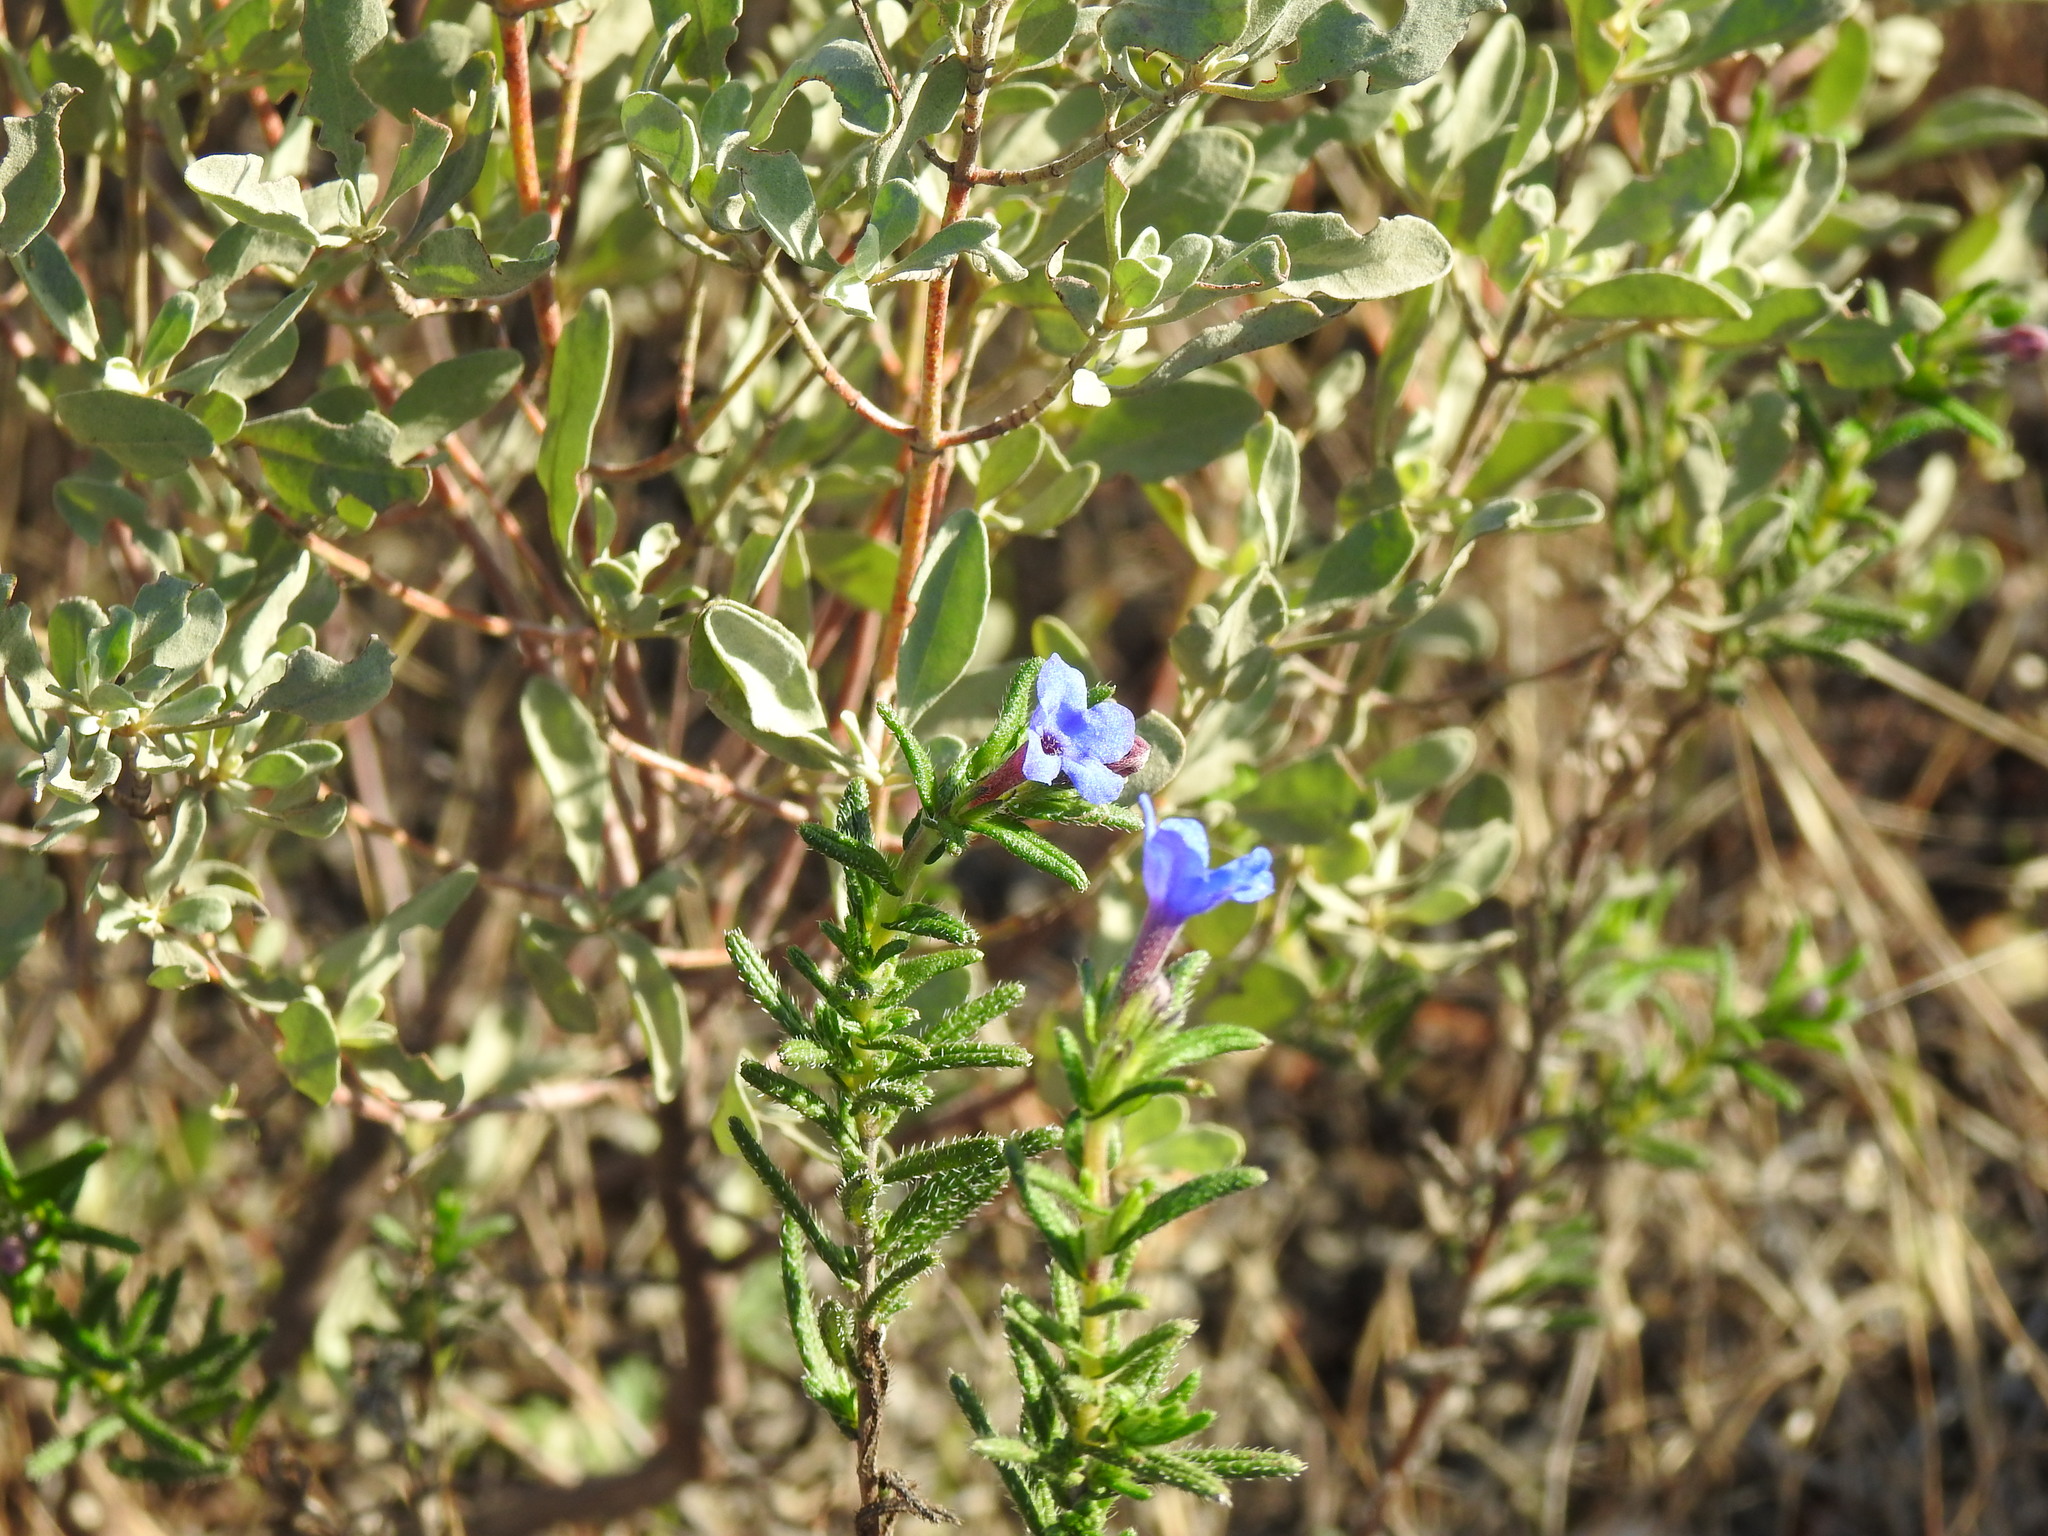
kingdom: Plantae
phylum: Tracheophyta
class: Magnoliopsida
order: Boraginales
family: Boraginaceae
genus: Glandora
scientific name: Glandora prostrata
